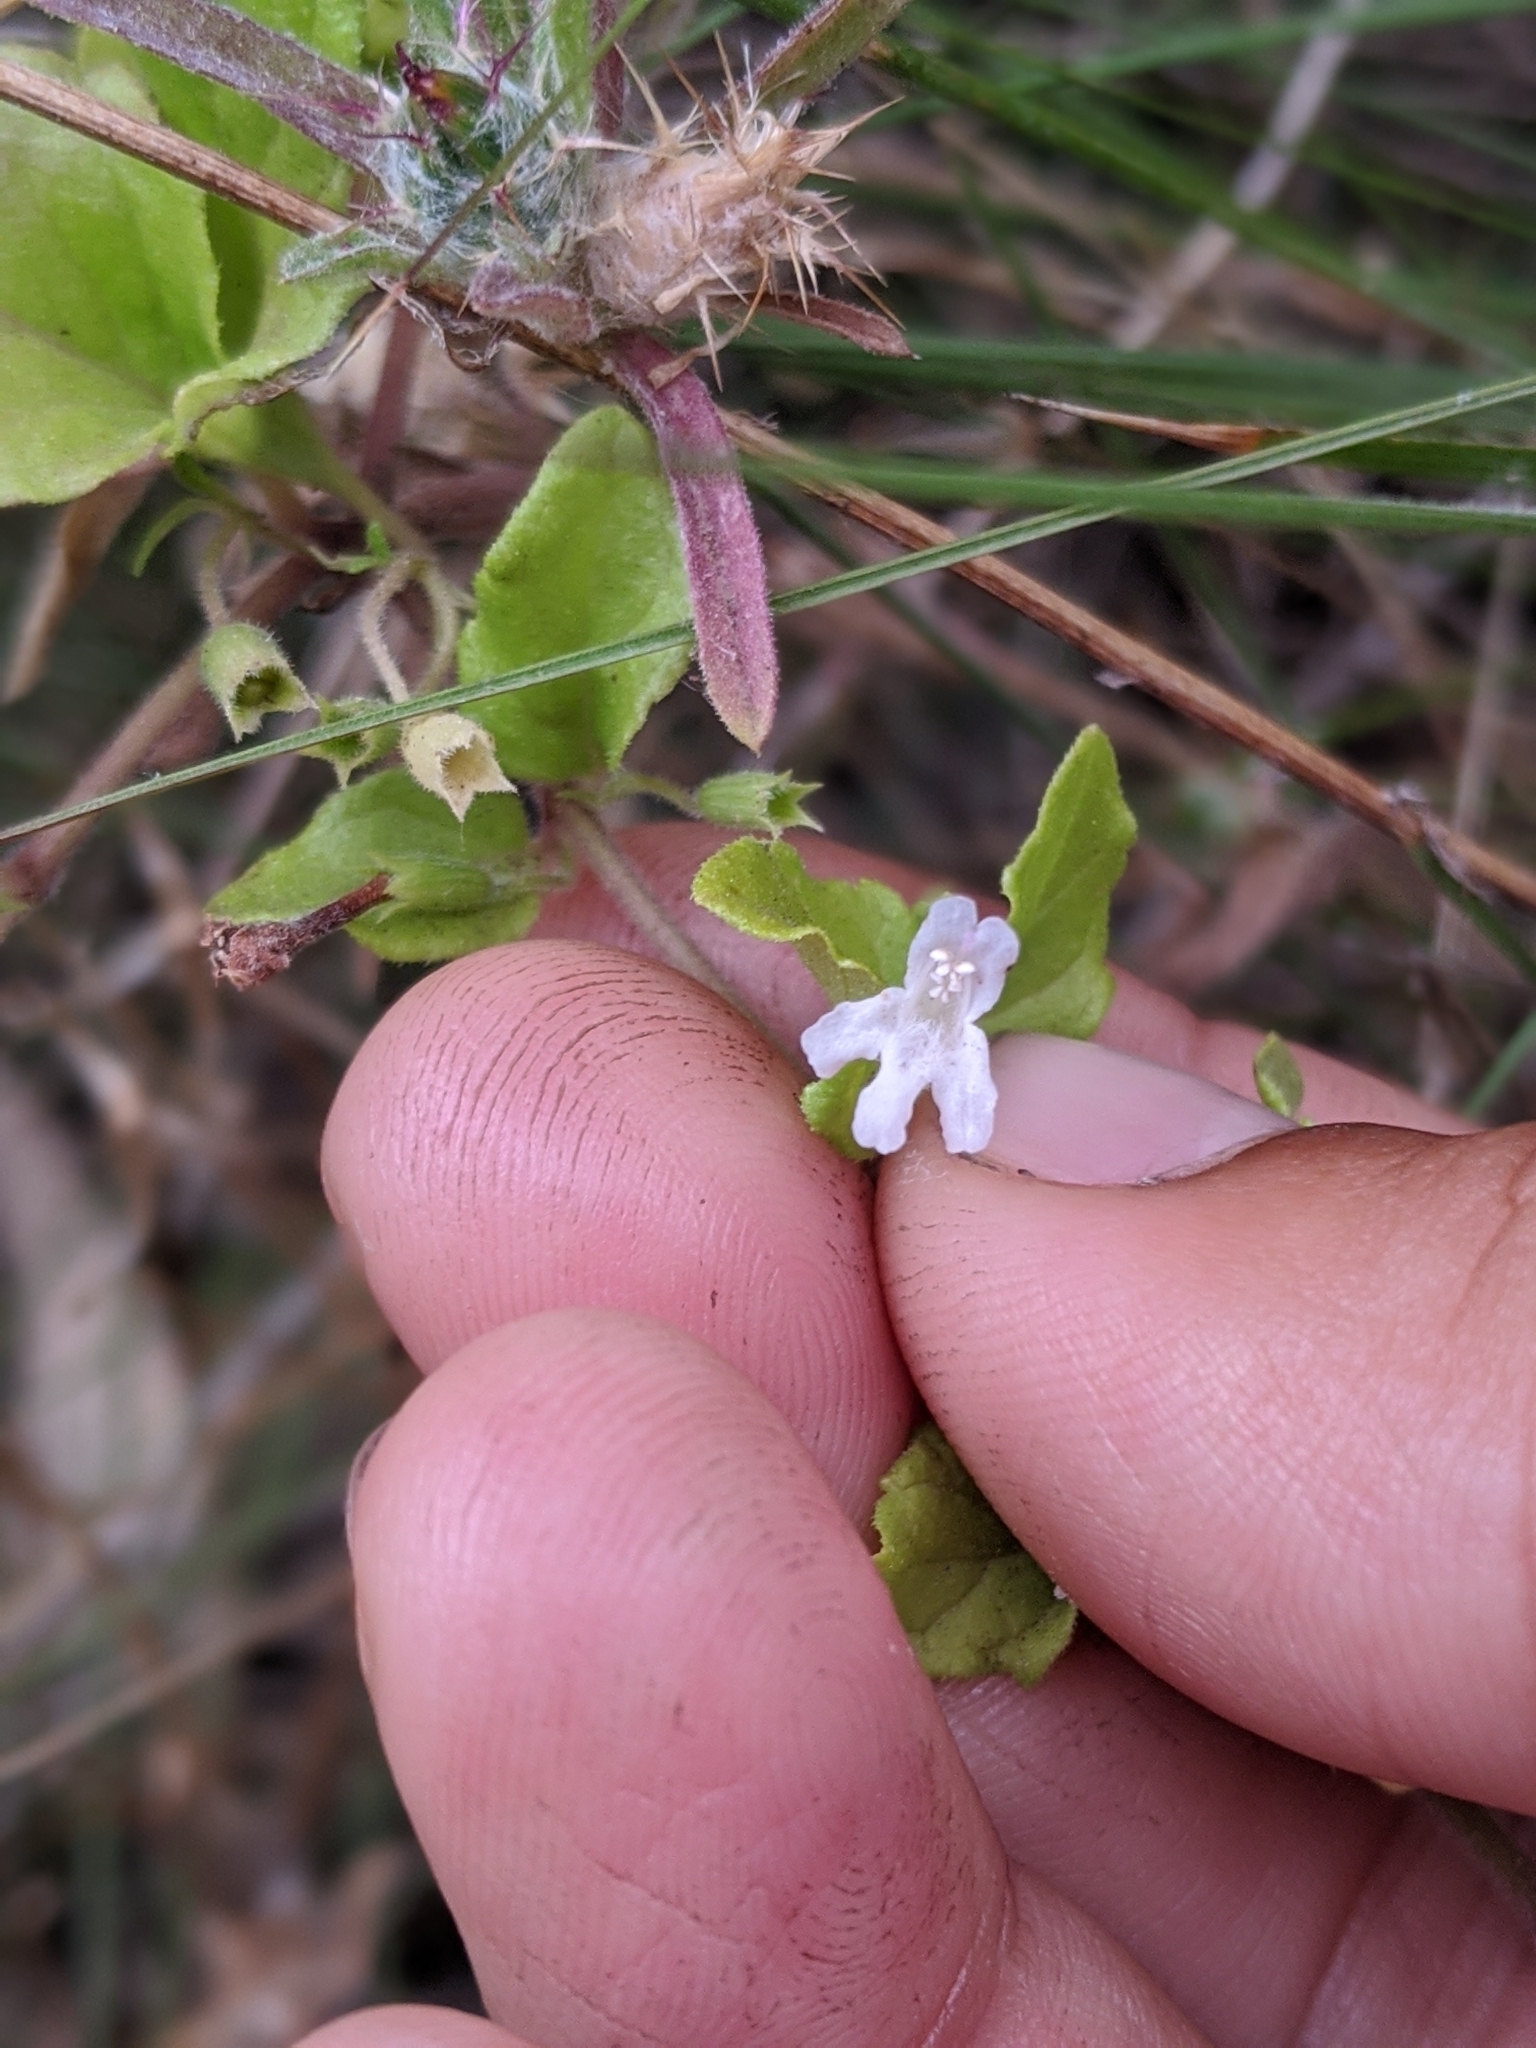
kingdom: Plantae
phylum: Tracheophyta
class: Magnoliopsida
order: Lamiales
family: Lamiaceae
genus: Micromeria
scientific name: Micromeria douglasii
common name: Yerba buena
